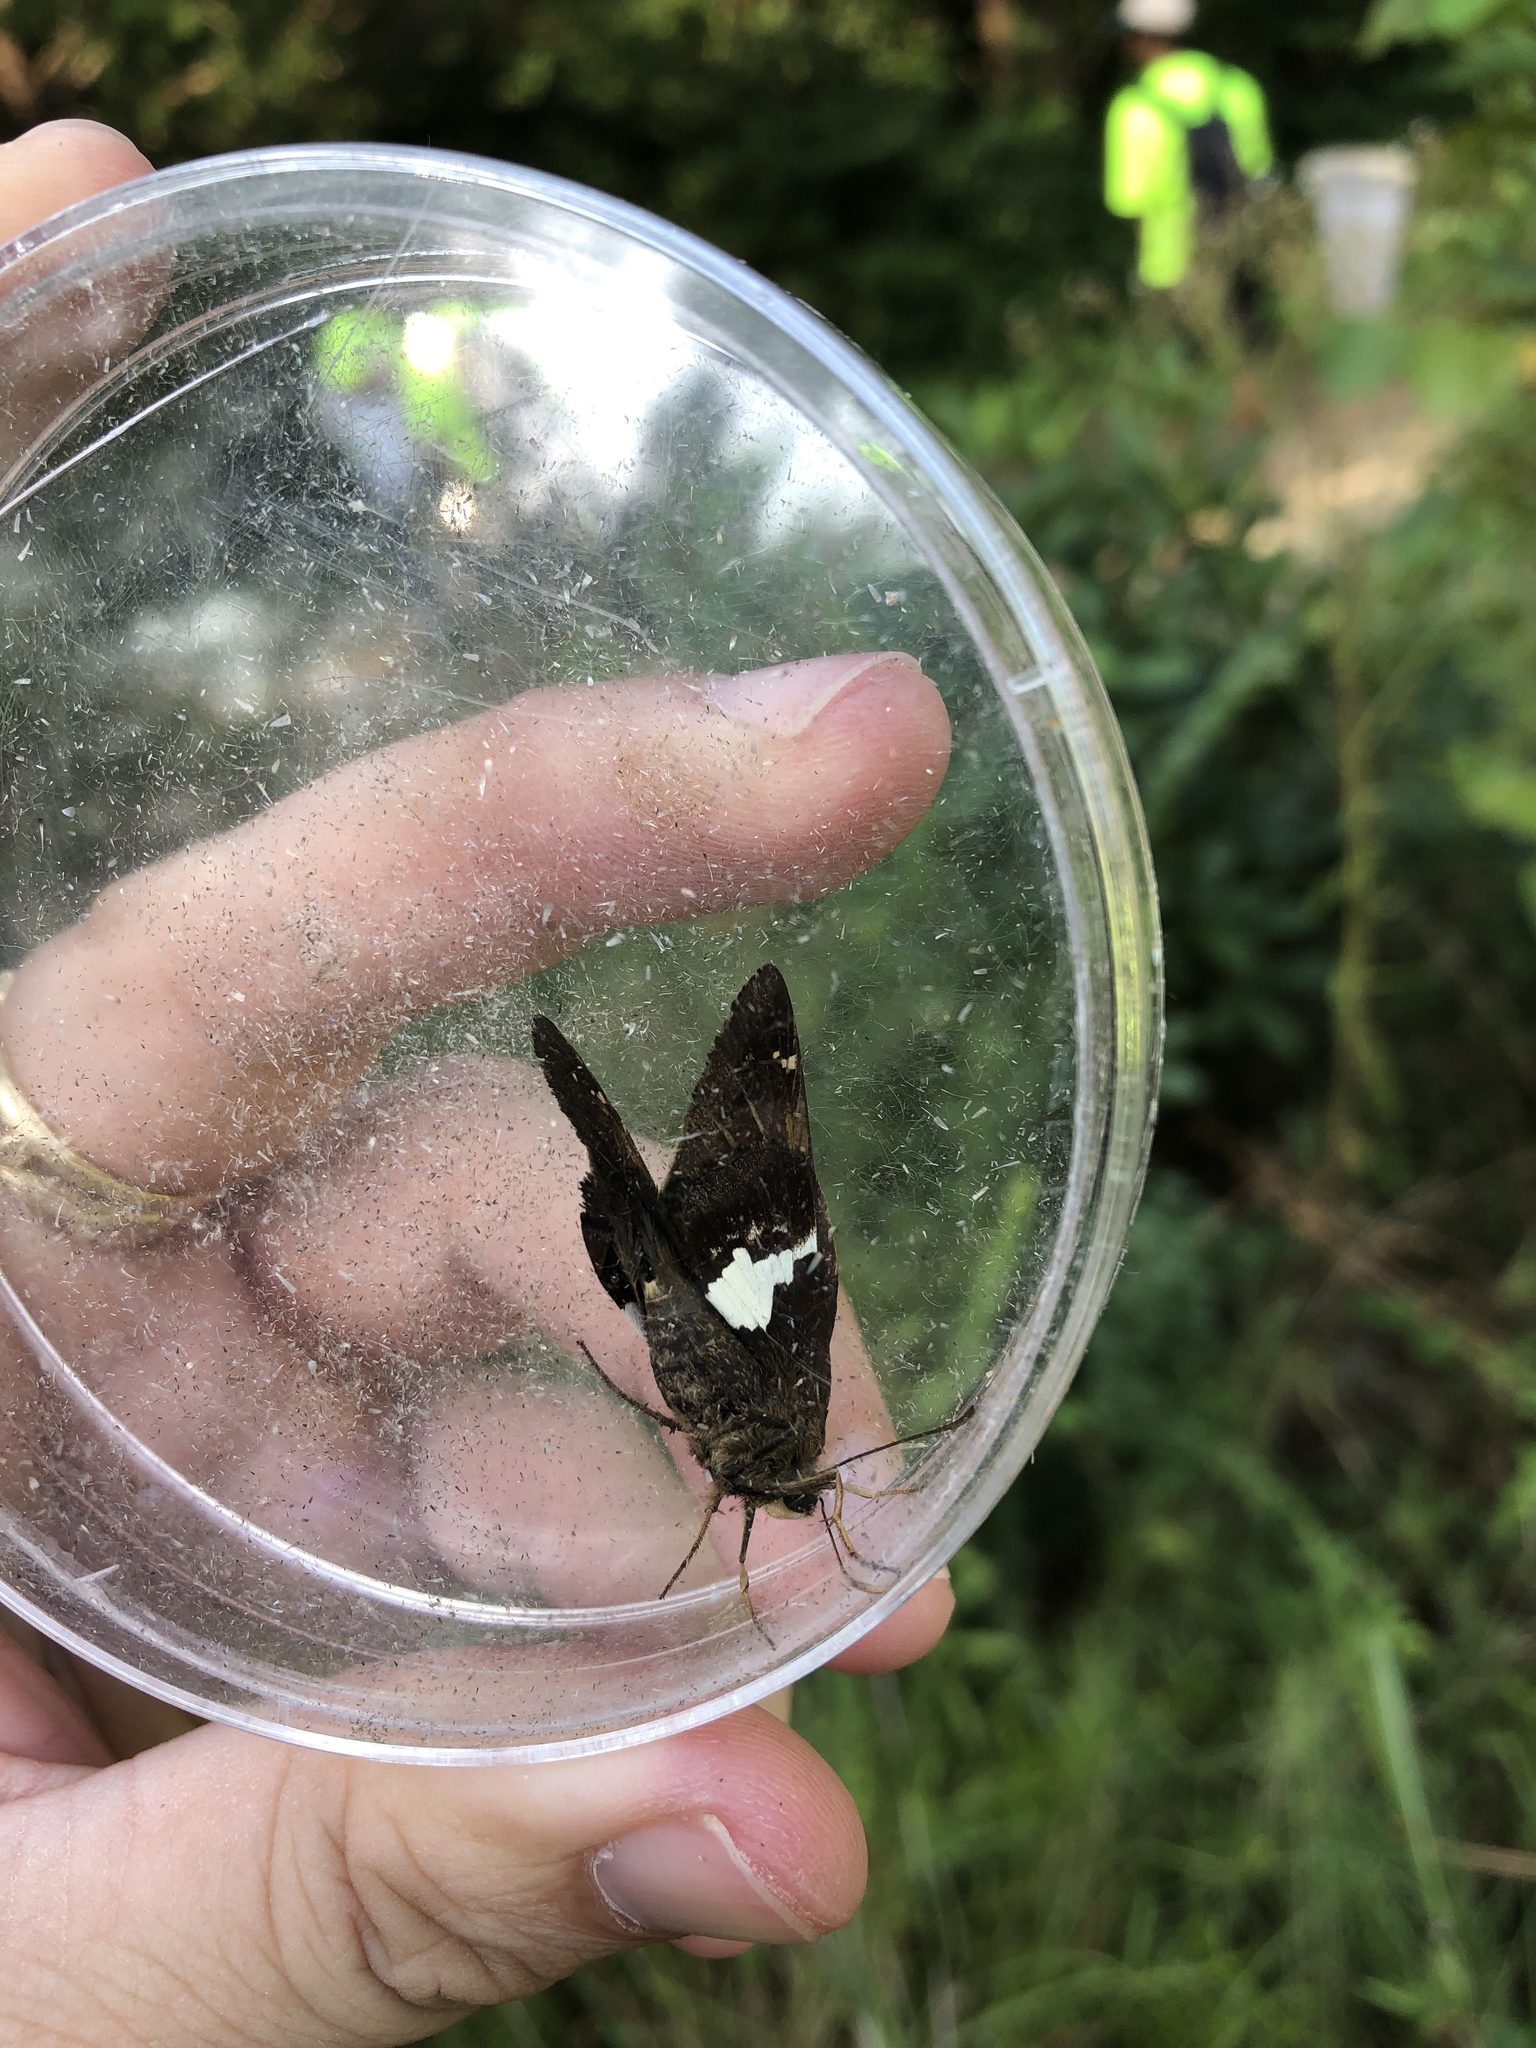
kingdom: Animalia
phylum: Arthropoda
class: Insecta
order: Lepidoptera
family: Hesperiidae
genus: Epargyreus
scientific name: Epargyreus clarus
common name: Silver-spotted skipper
